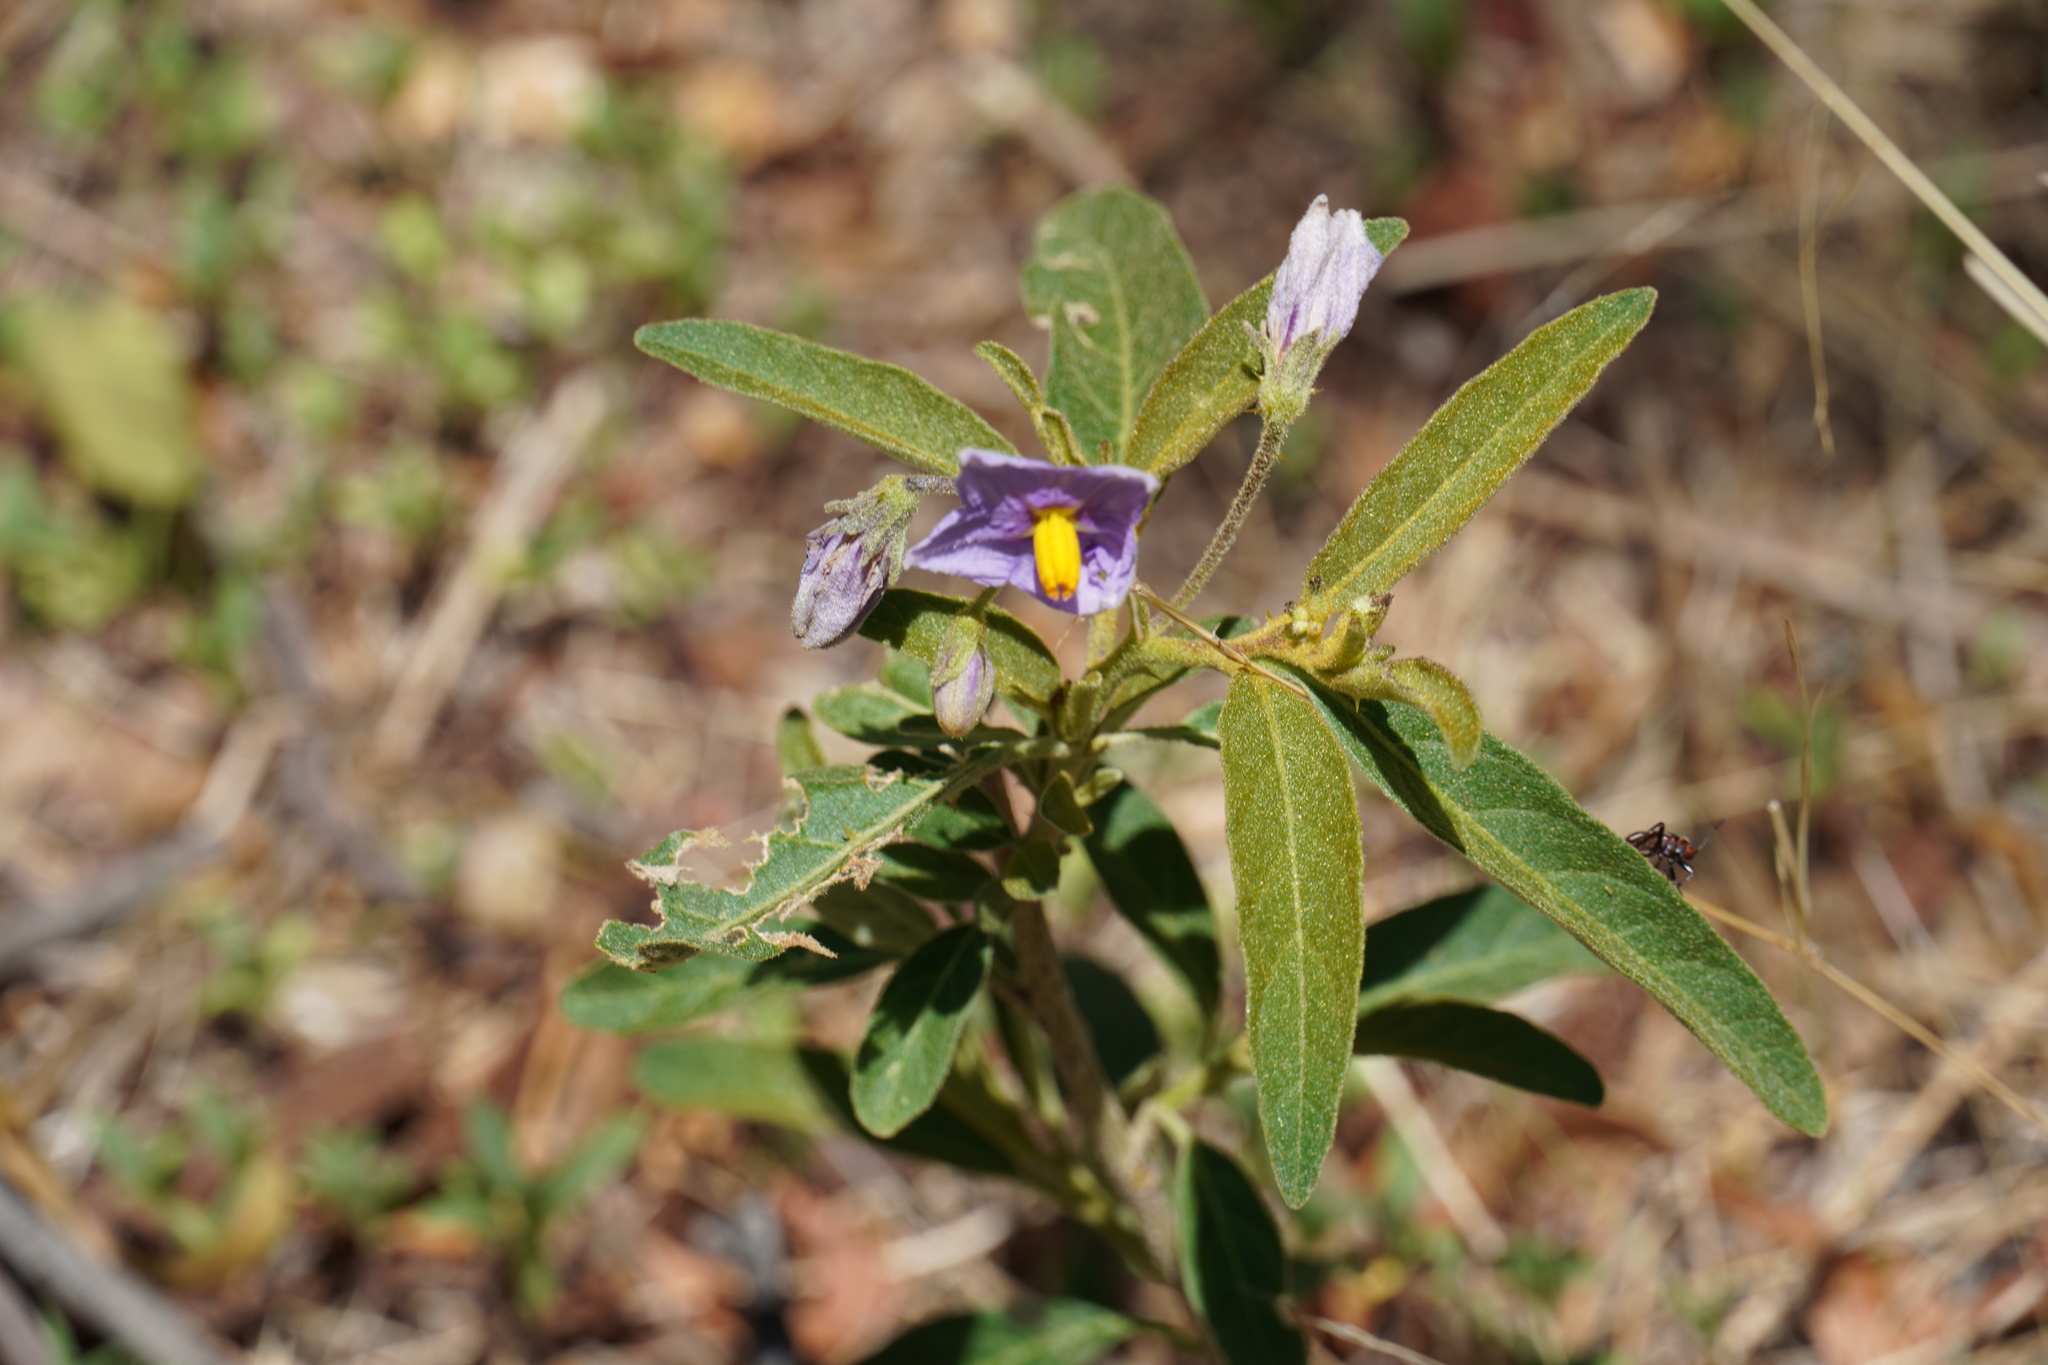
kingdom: Plantae
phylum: Tracheophyta
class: Magnoliopsida
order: Solanales
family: Solanaceae
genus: Solanum
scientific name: Solanum campylacanthum
